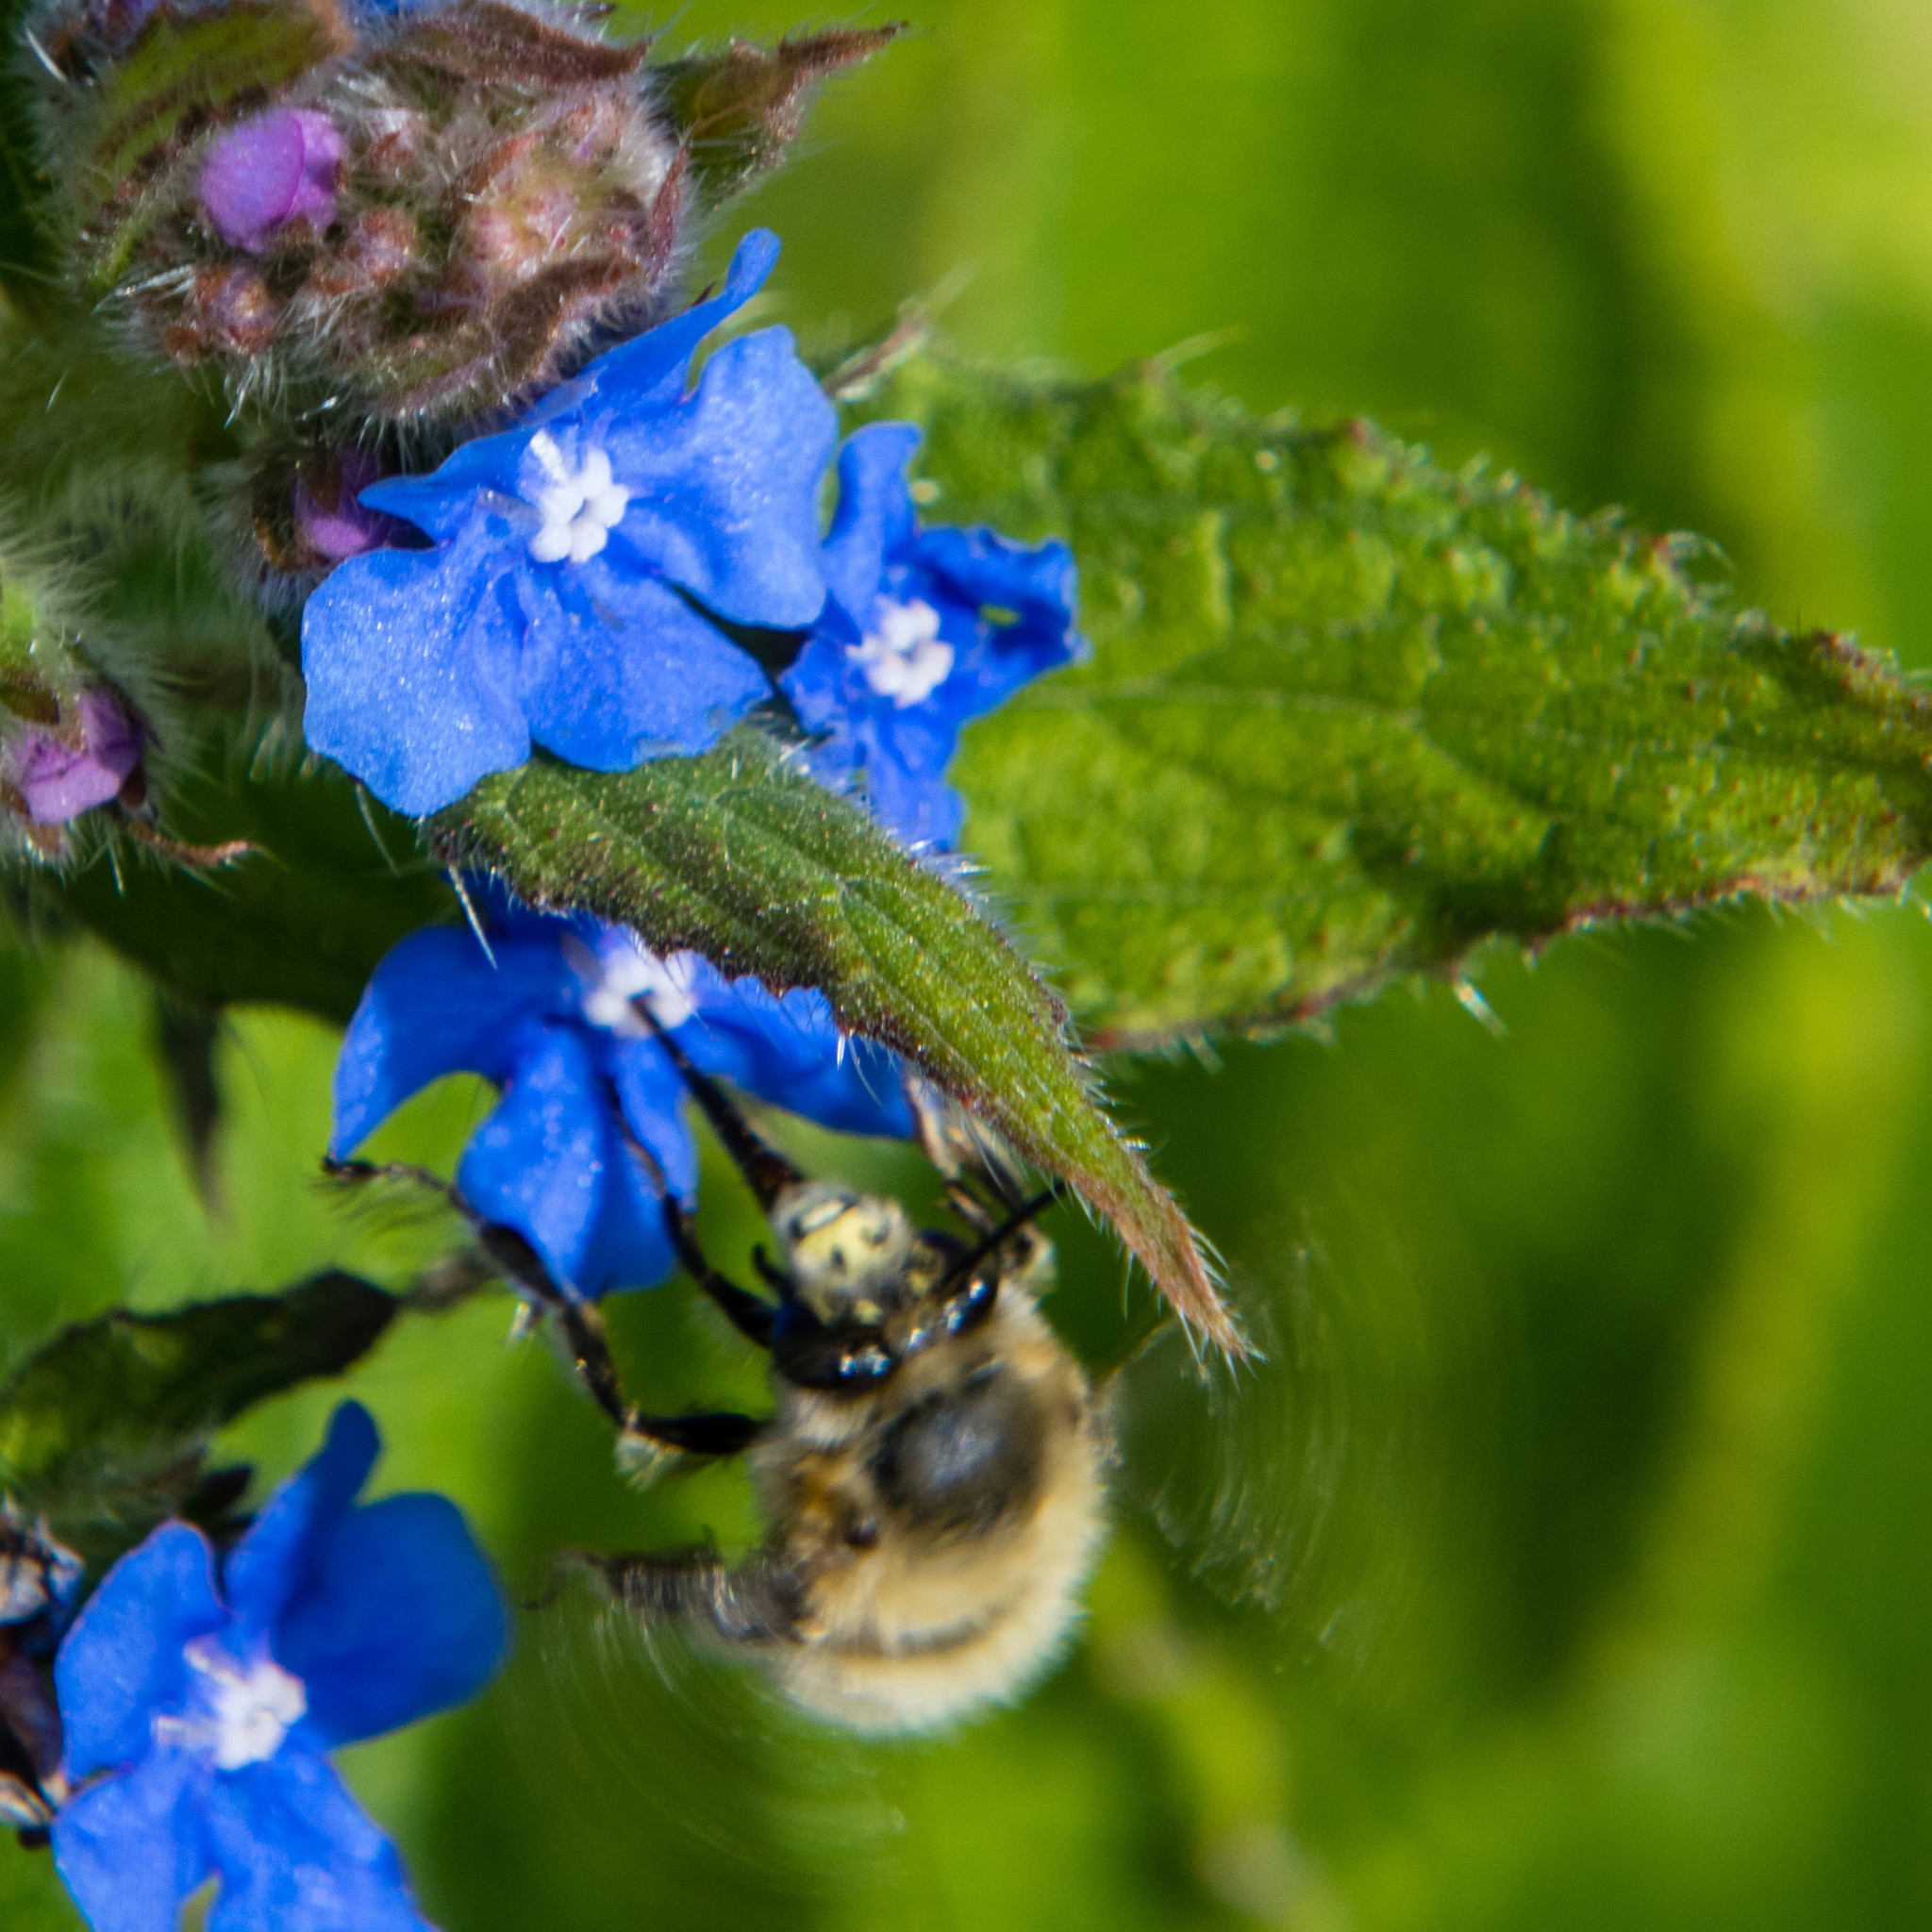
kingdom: Animalia
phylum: Arthropoda
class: Insecta
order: Hymenoptera
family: Apidae
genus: Anthophora
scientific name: Anthophora plumipes
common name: Hairy-footed flower bee
